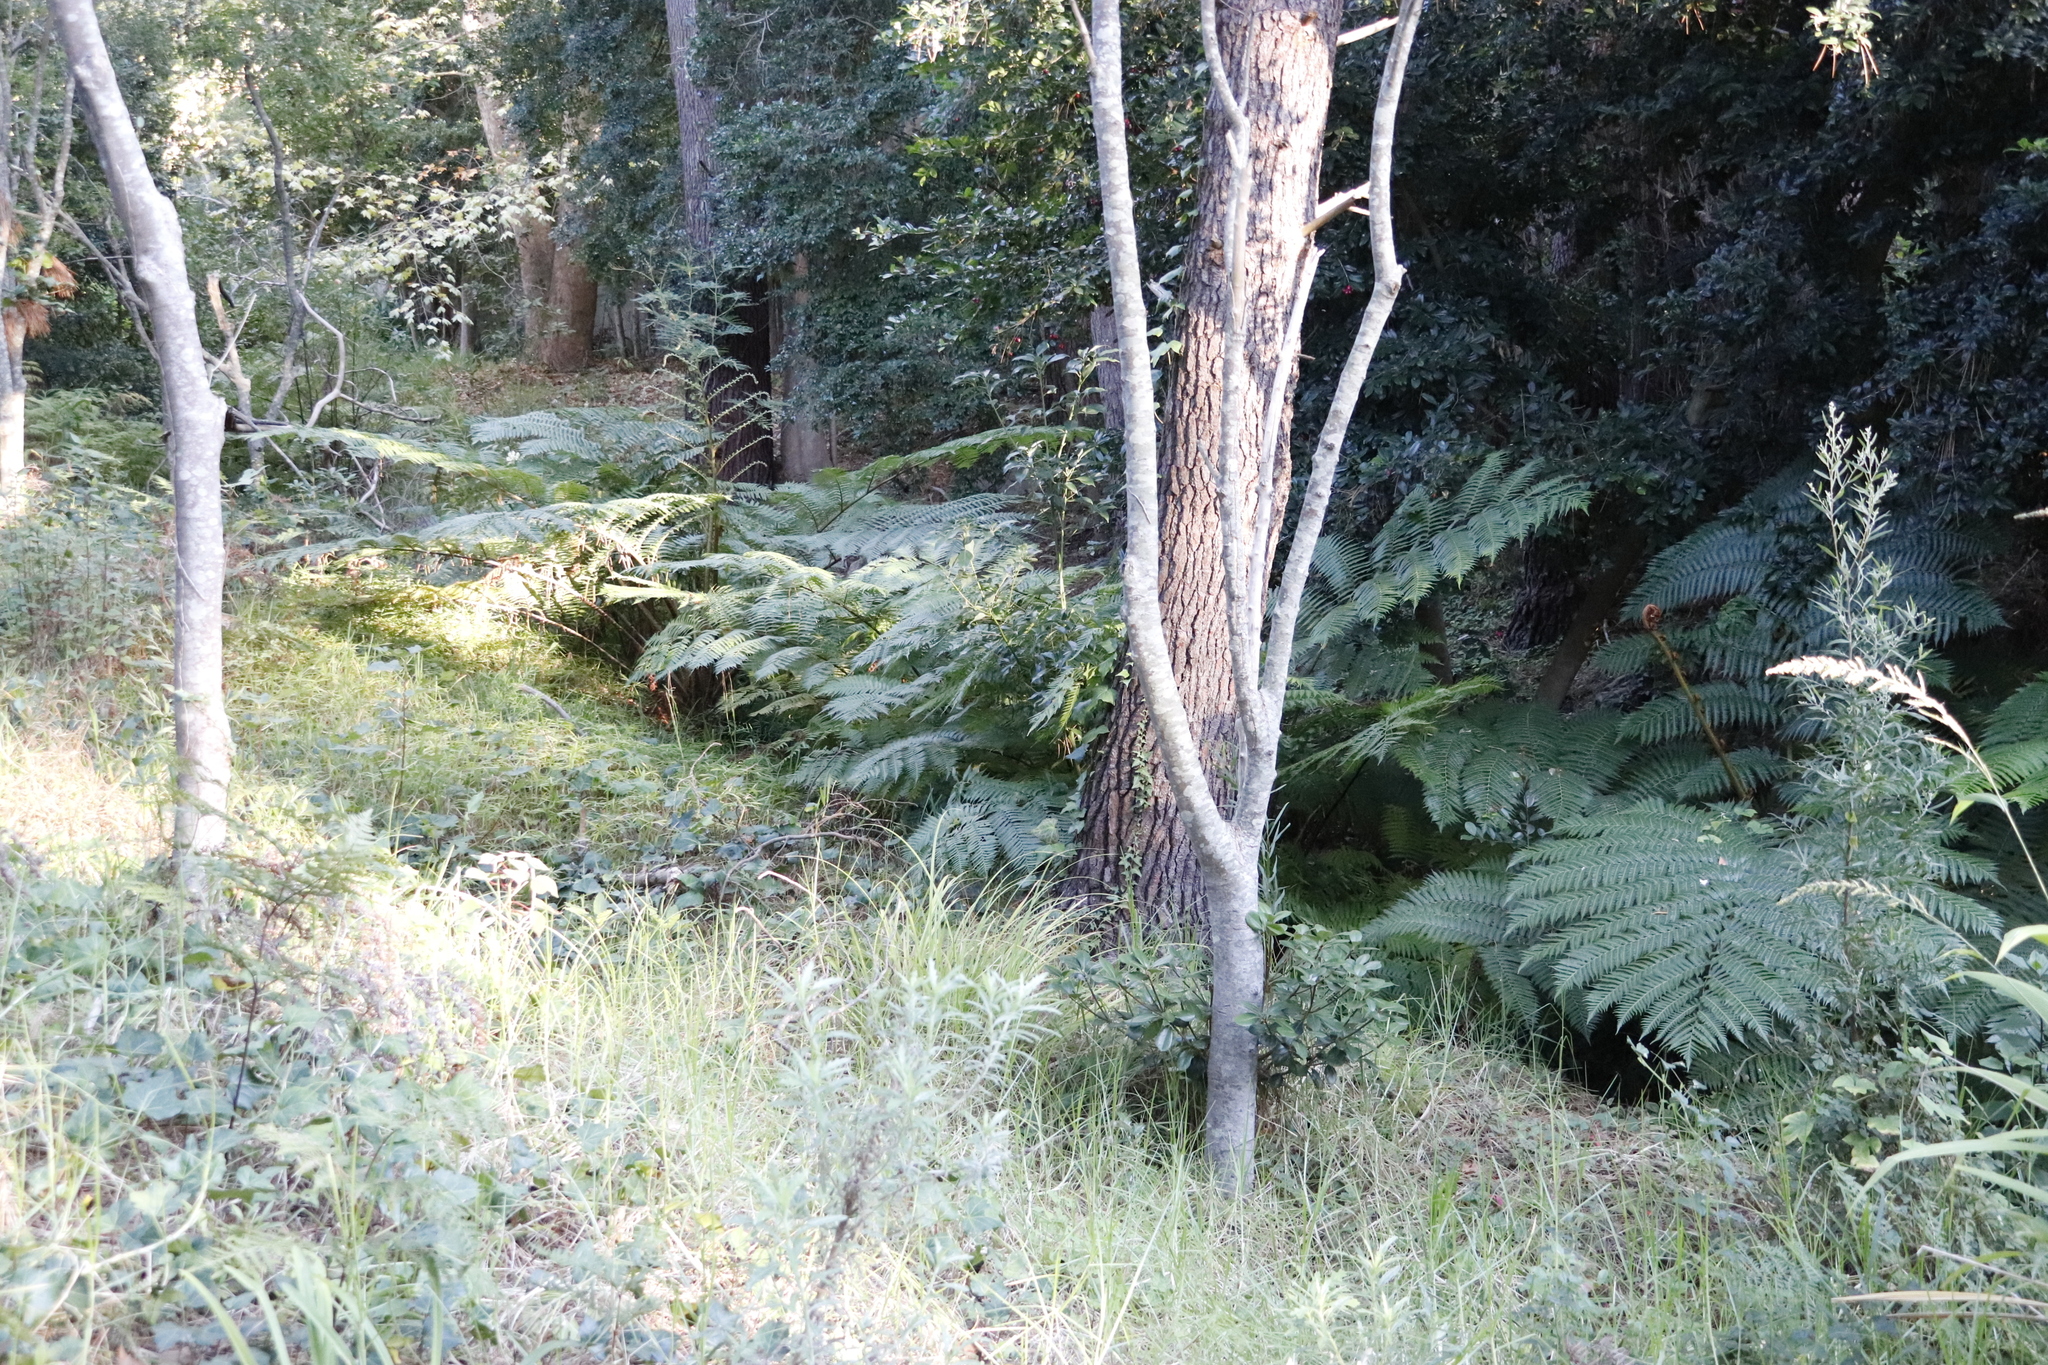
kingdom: Plantae
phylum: Tracheophyta
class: Polypodiopsida
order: Cyatheales
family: Cyatheaceae
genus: Sphaeropteris
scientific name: Sphaeropteris cooperi
